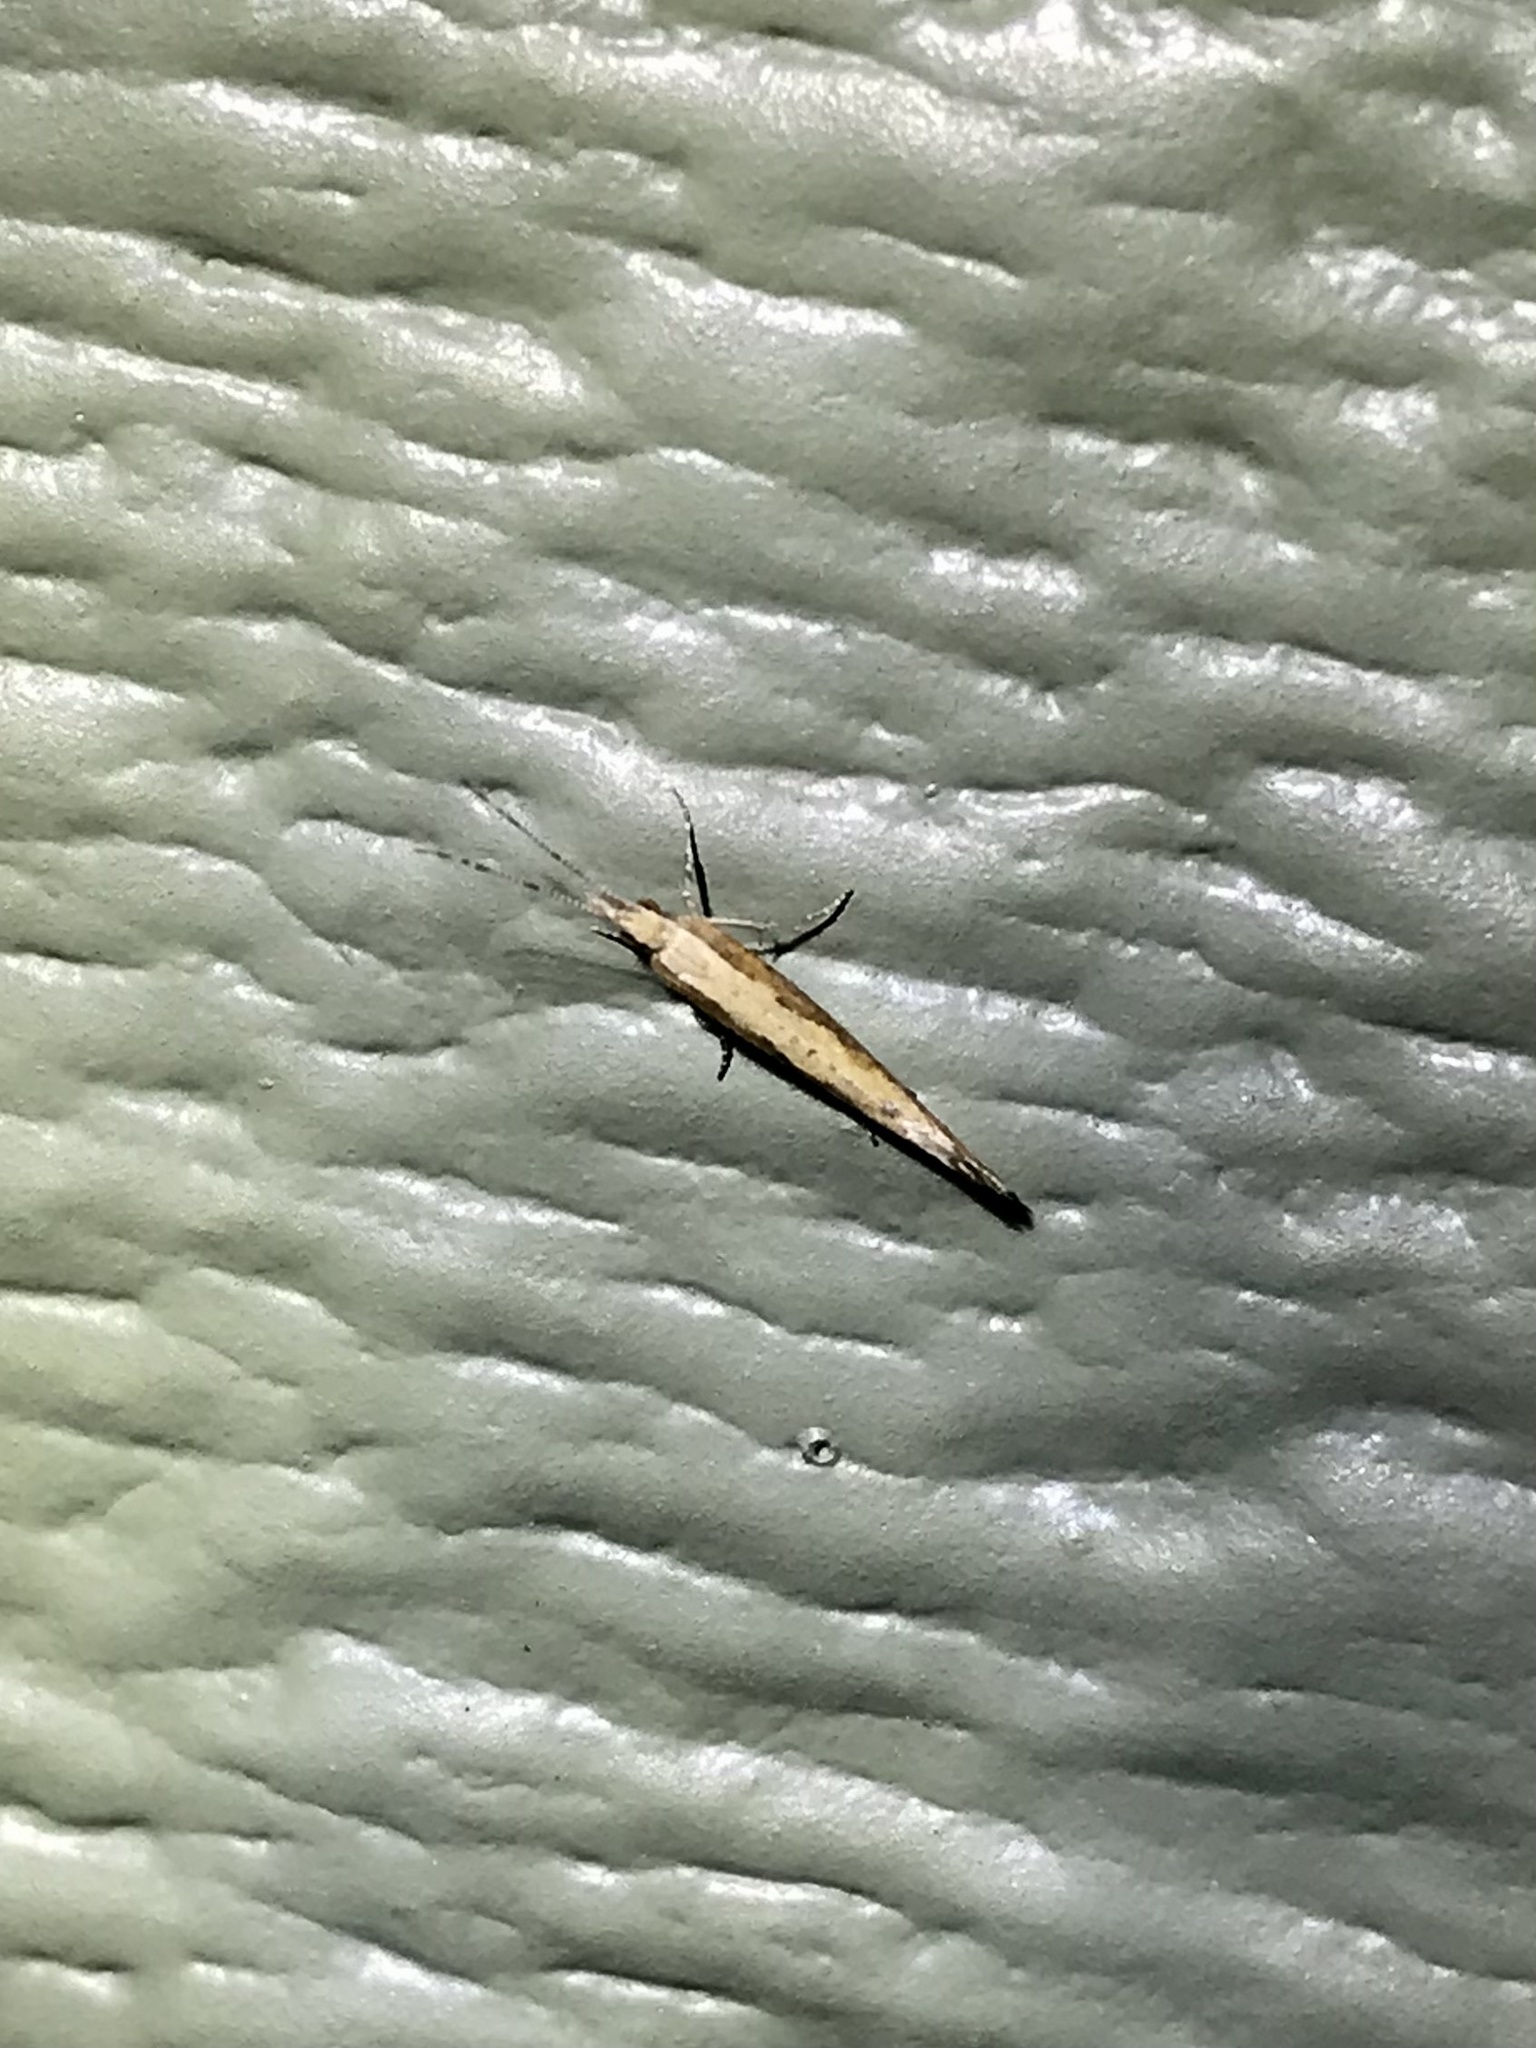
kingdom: Animalia
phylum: Arthropoda
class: Insecta
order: Lepidoptera
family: Plutellidae
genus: Plutella
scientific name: Plutella xylostella
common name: Diamond-back moth
